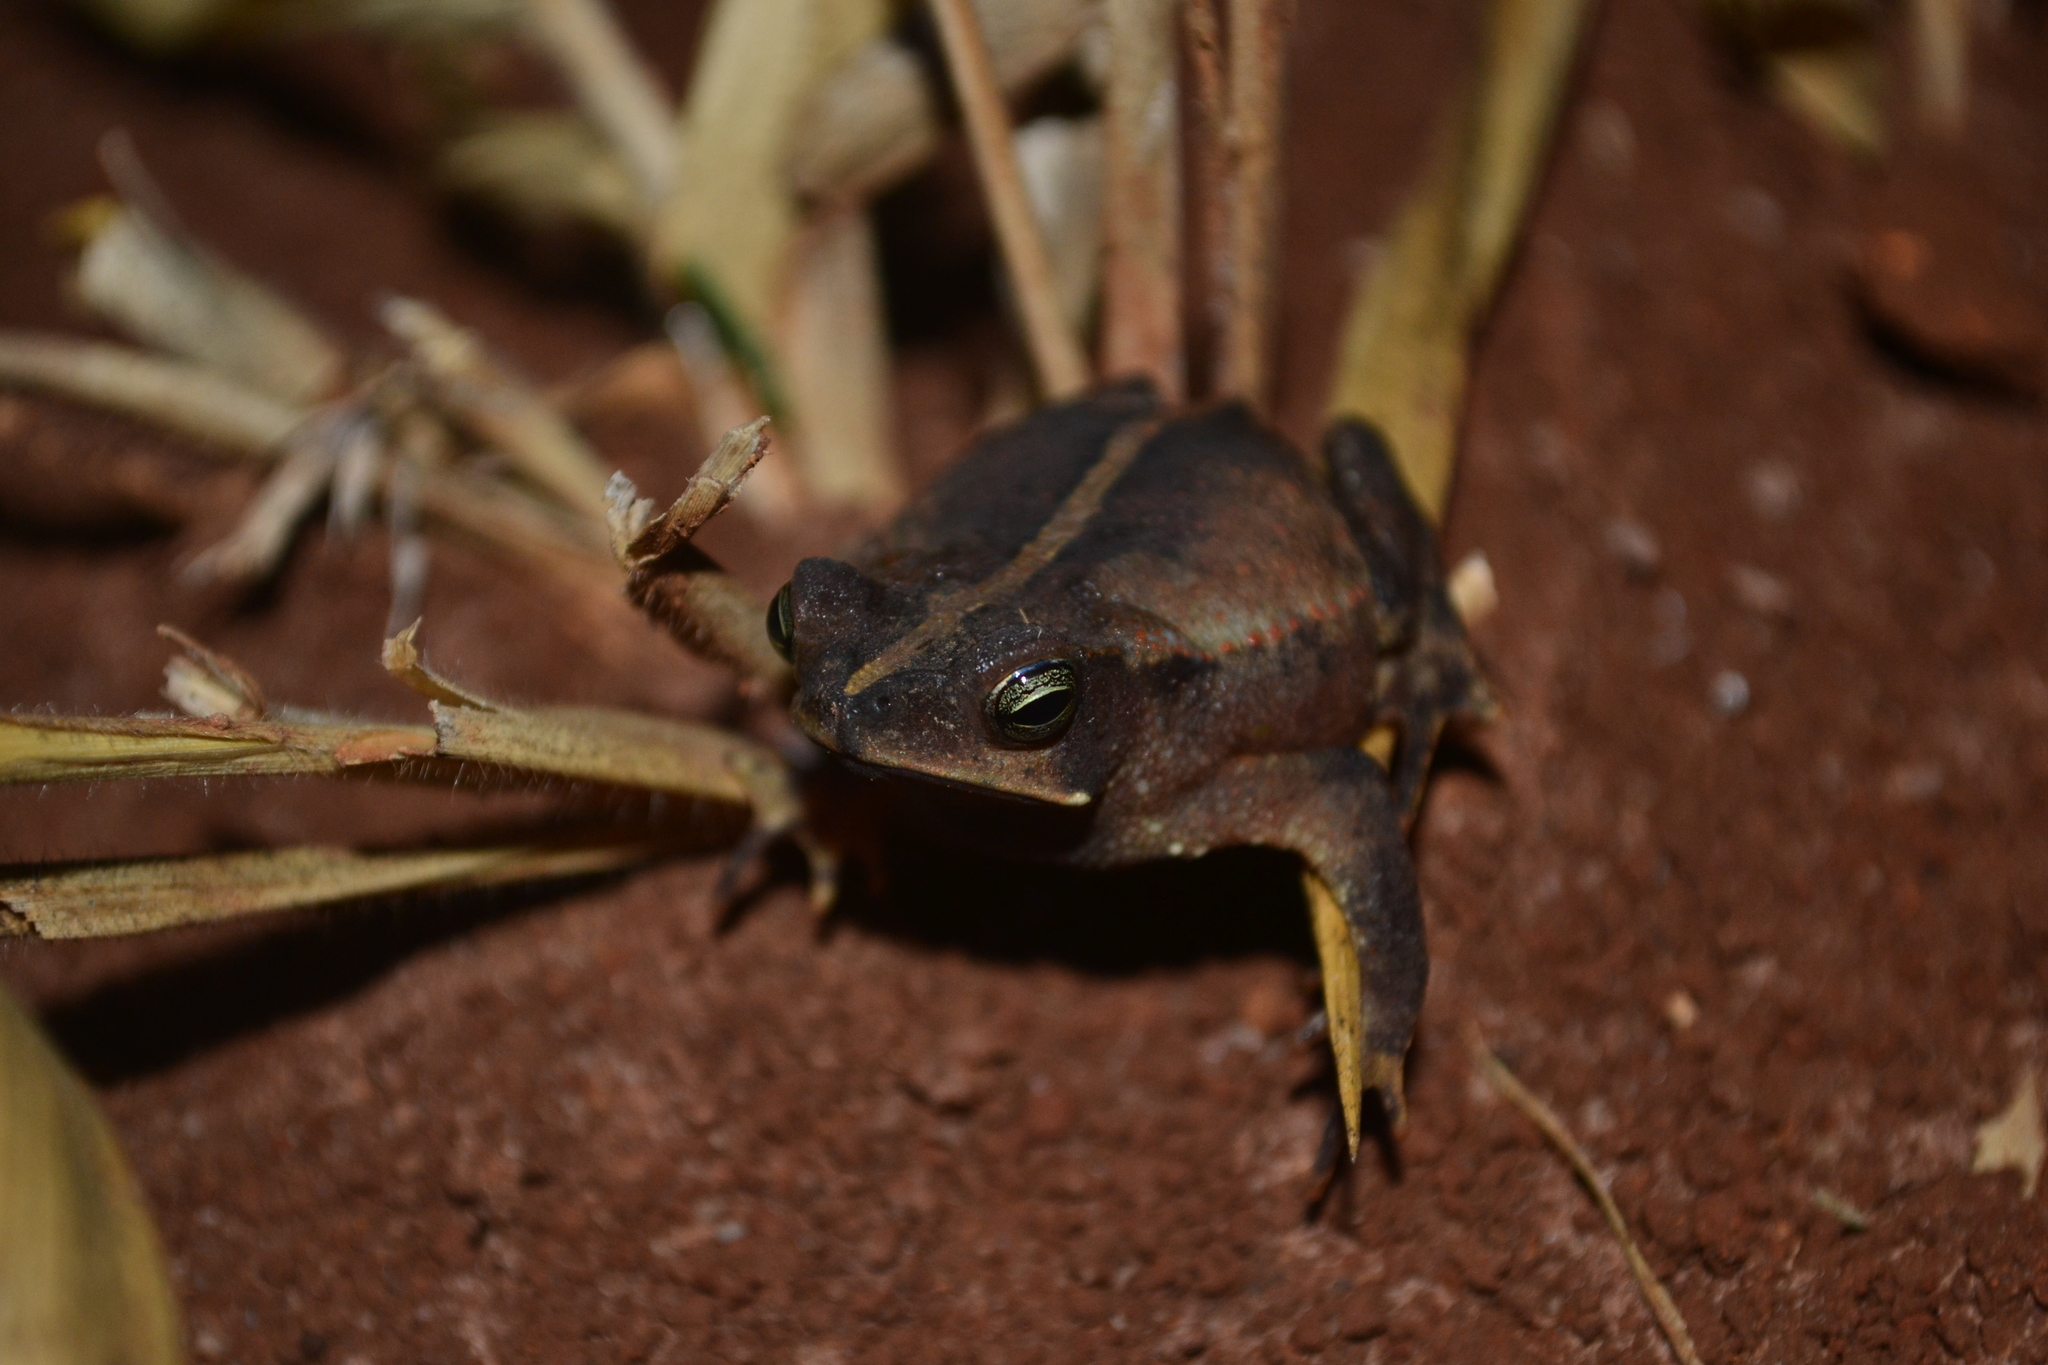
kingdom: Animalia
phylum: Chordata
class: Amphibia
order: Anura
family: Bufonidae
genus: Rhinella
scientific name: Rhinella stanlaii
